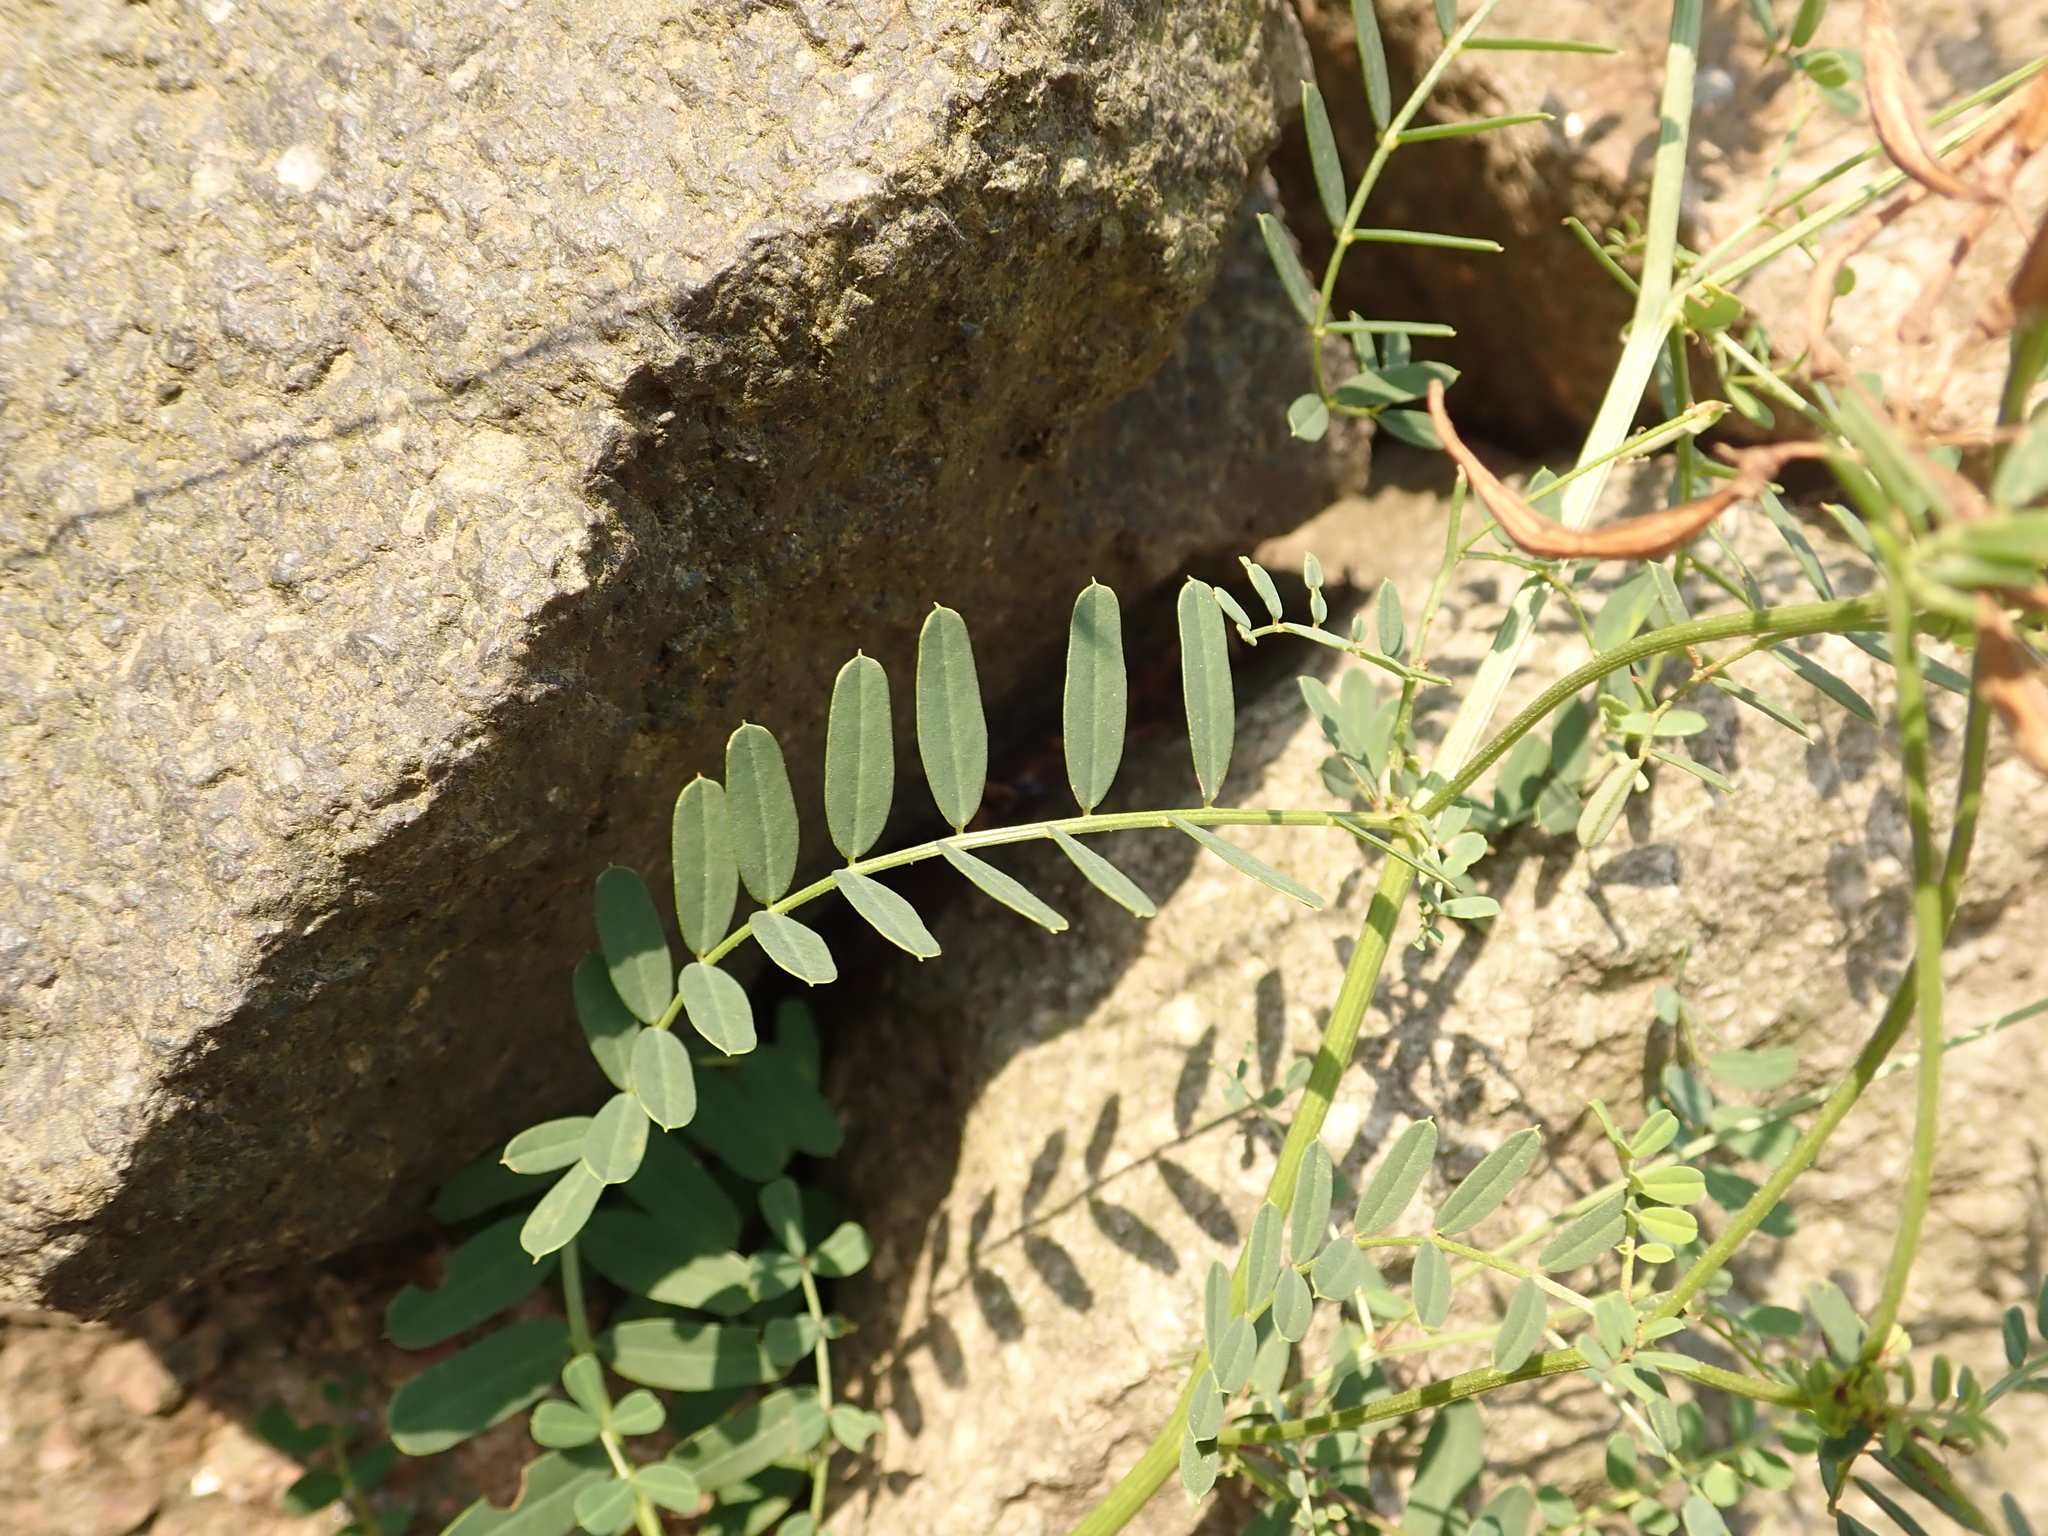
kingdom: Plantae
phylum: Tracheophyta
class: Magnoliopsida
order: Fabales
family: Fabaceae
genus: Coronilla
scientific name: Coronilla varia
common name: Crownvetch
